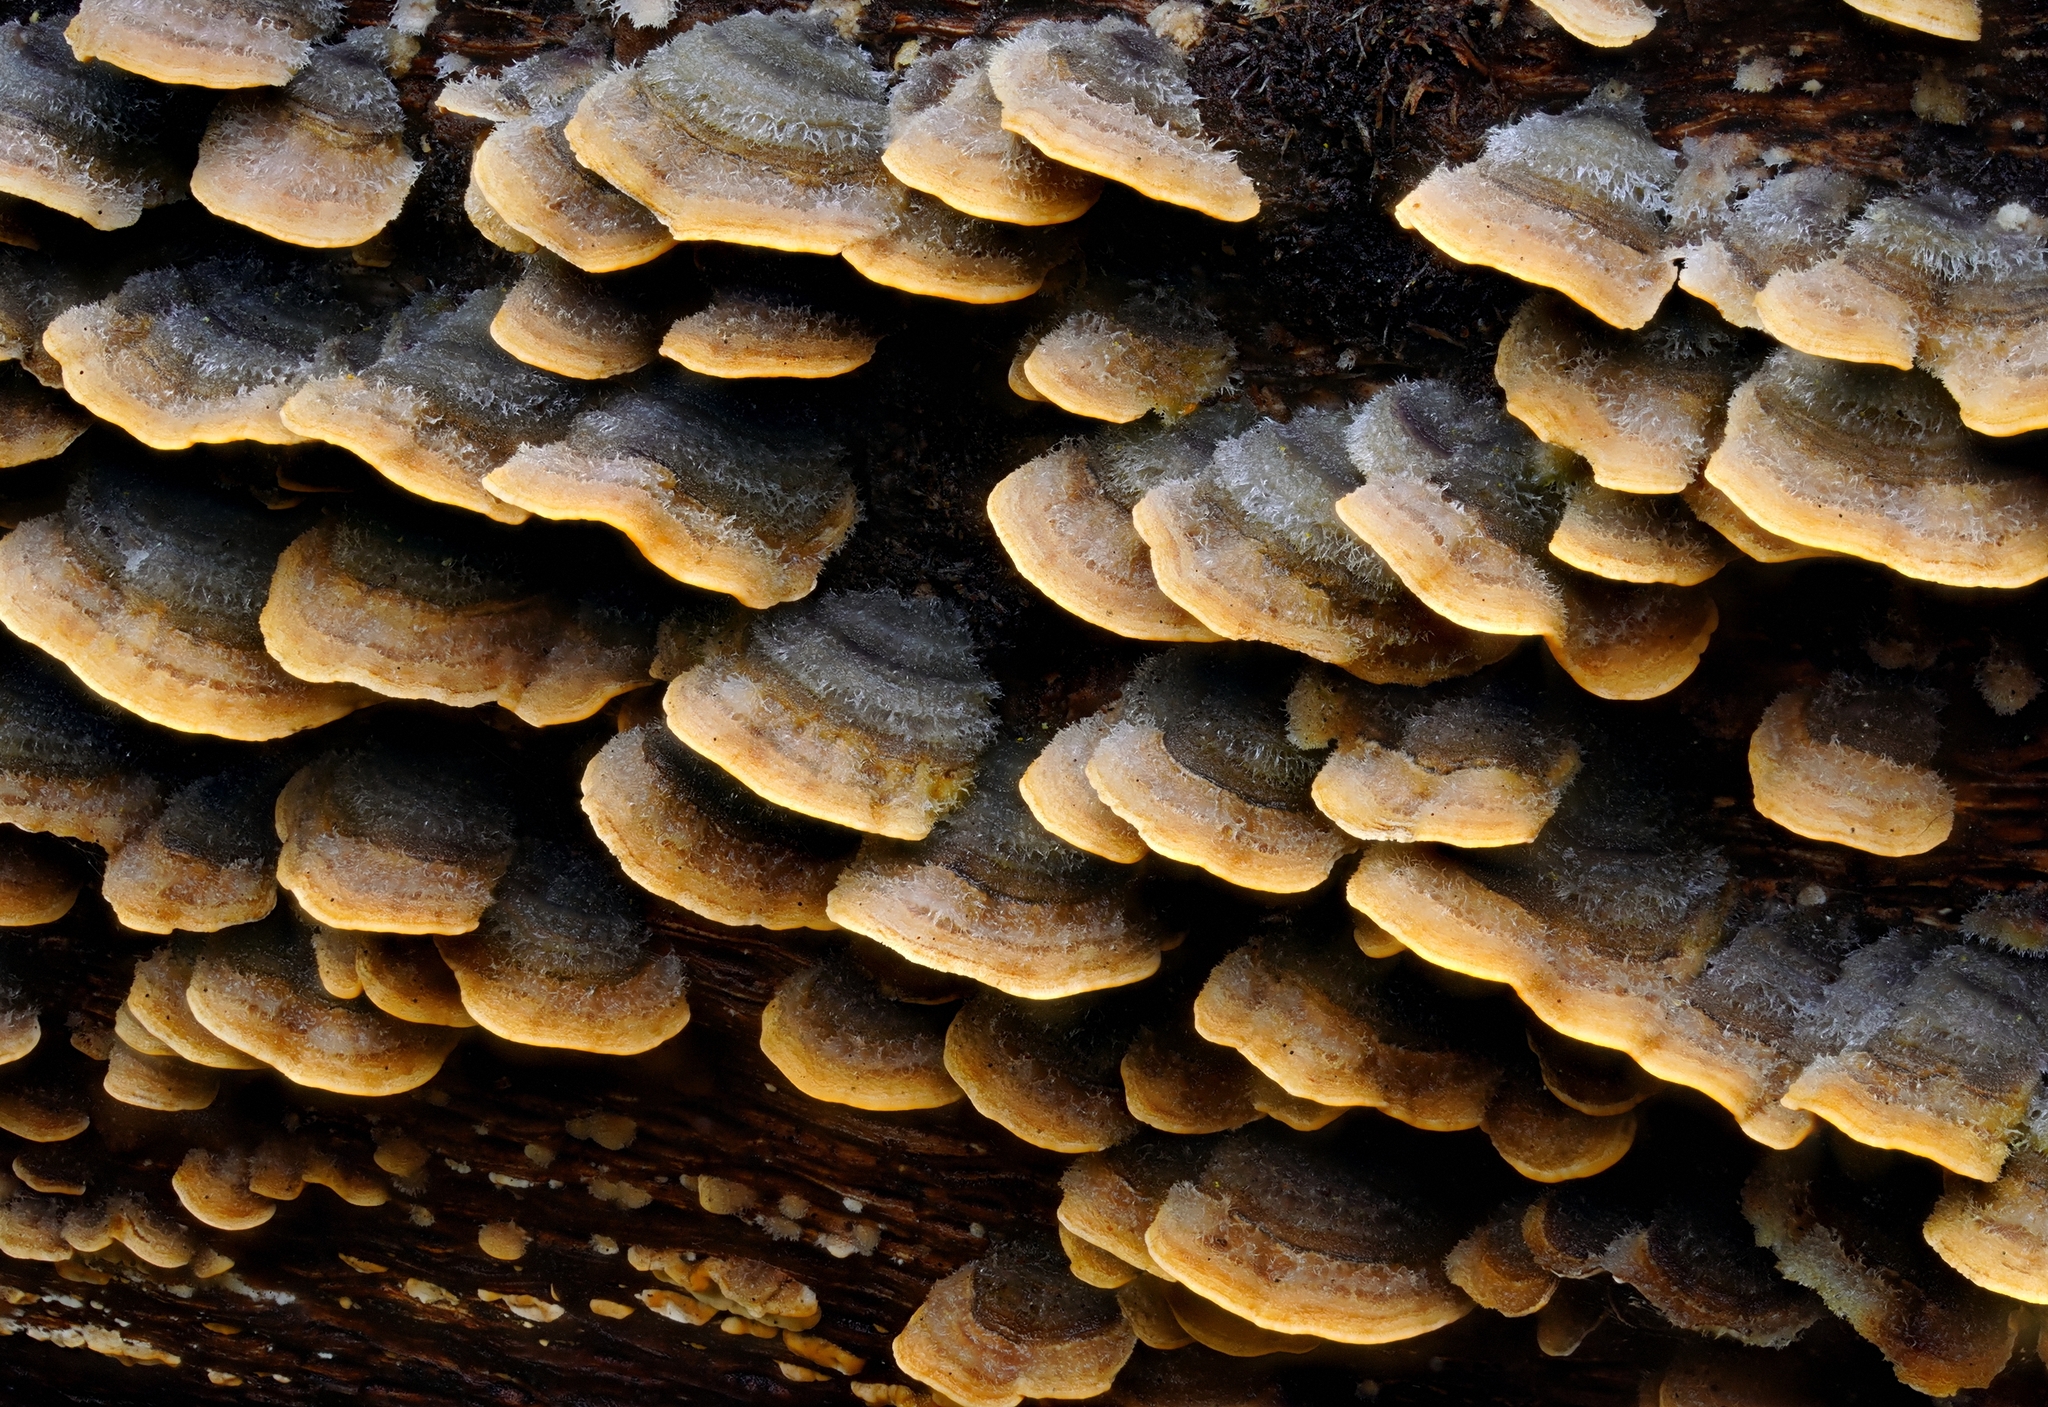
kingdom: Fungi
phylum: Basidiomycota
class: Agaricomycetes
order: Russulales
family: Stereaceae
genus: Stereum
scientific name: Stereum hirsutum
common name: Hairy curtain crust
